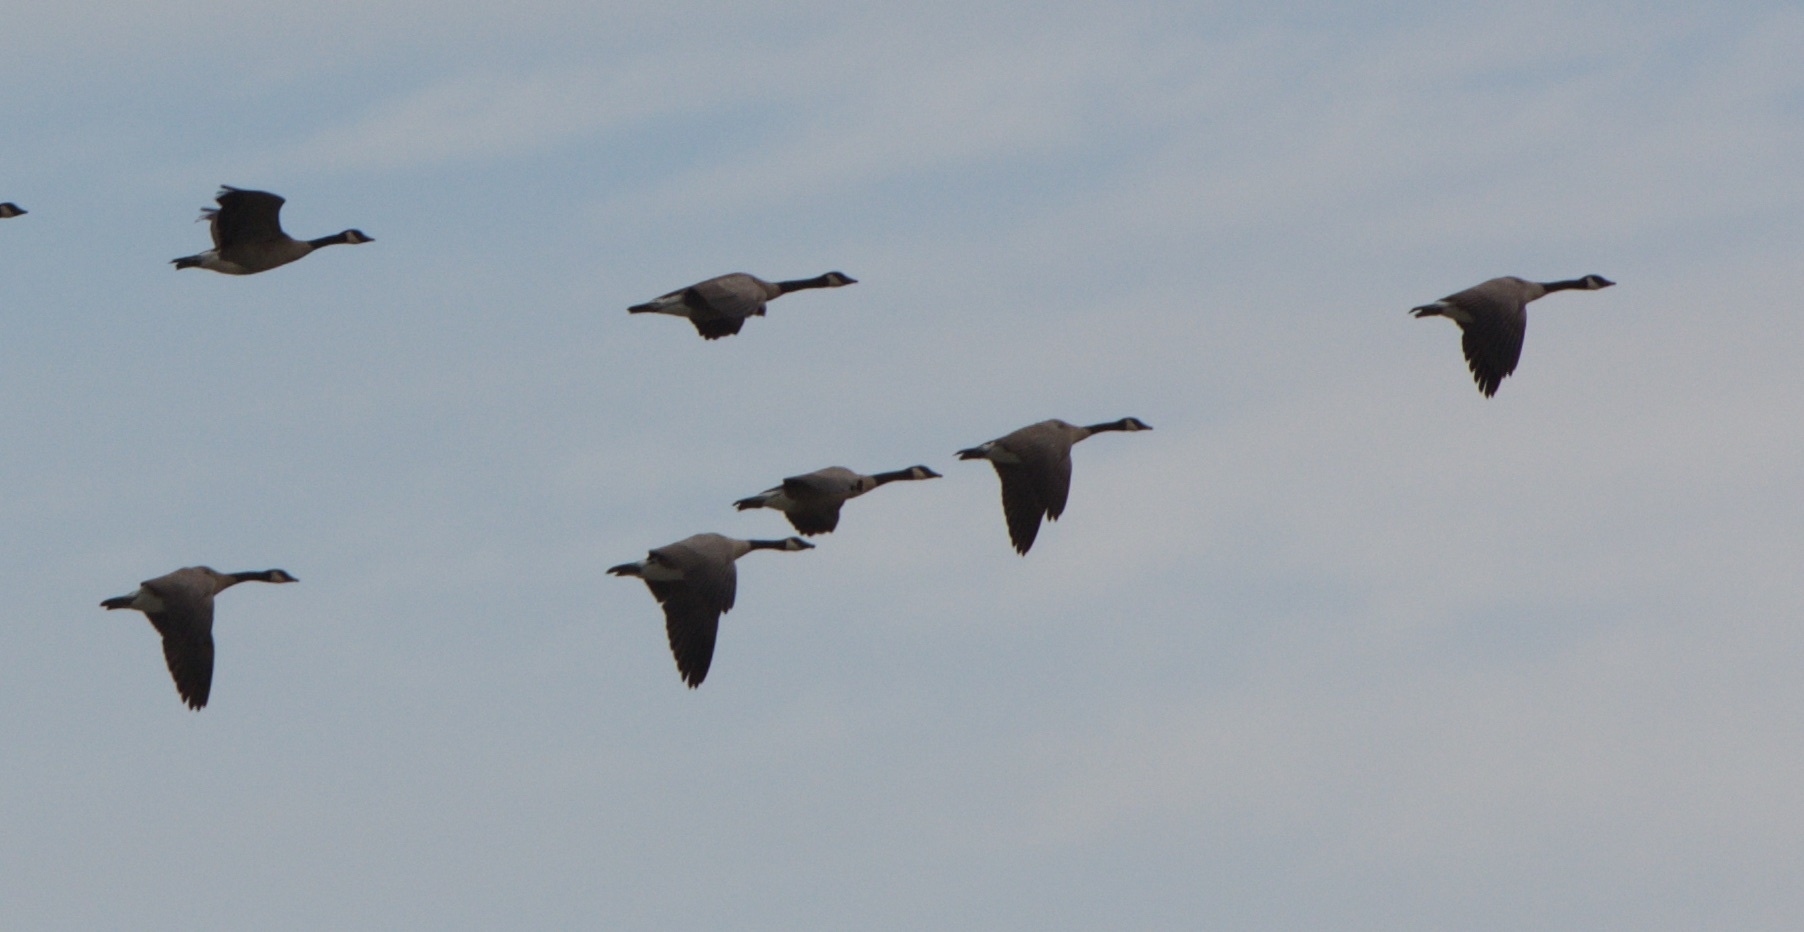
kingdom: Animalia
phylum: Chordata
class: Aves
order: Anseriformes
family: Anatidae
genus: Branta
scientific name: Branta canadensis
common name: Canada goose
